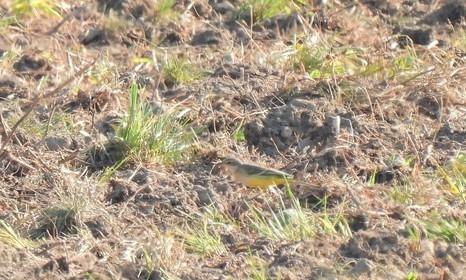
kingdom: Animalia
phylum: Chordata
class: Aves
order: Passeriformes
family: Motacillidae
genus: Motacilla
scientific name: Motacilla flava
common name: Western yellow wagtail
